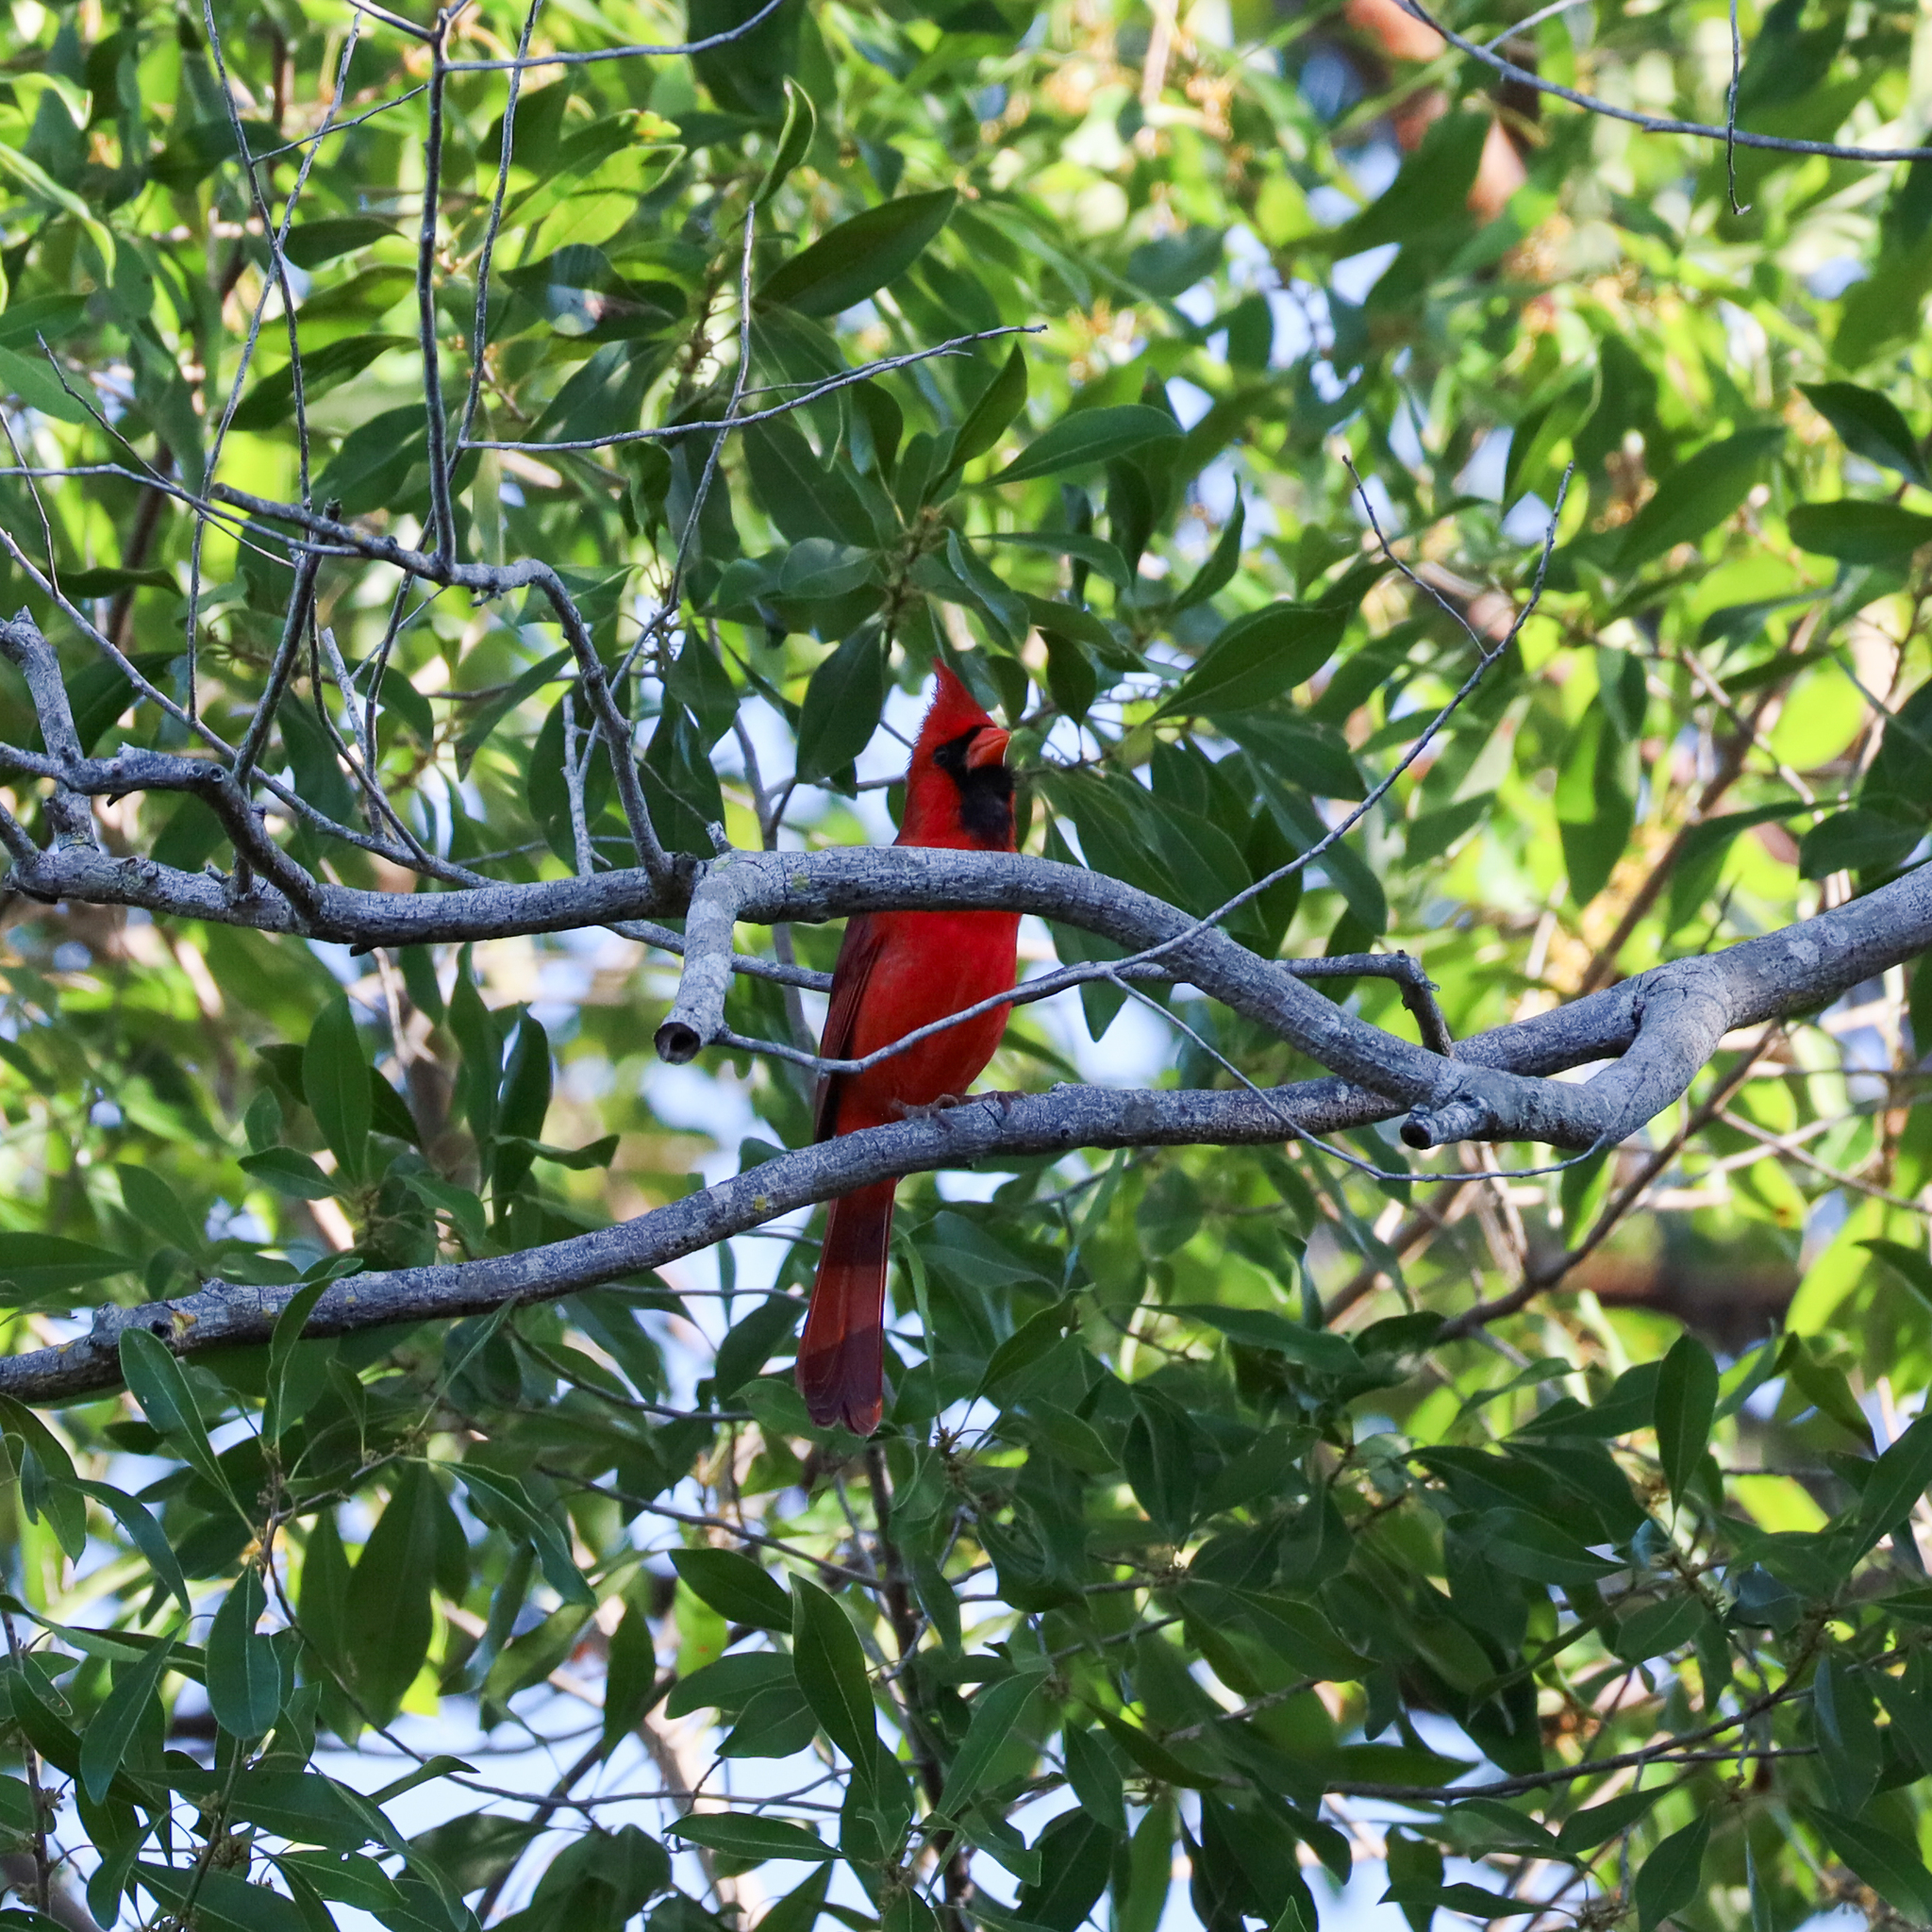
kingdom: Animalia
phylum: Chordata
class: Aves
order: Passeriformes
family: Cardinalidae
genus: Cardinalis
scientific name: Cardinalis cardinalis
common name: Northern cardinal
